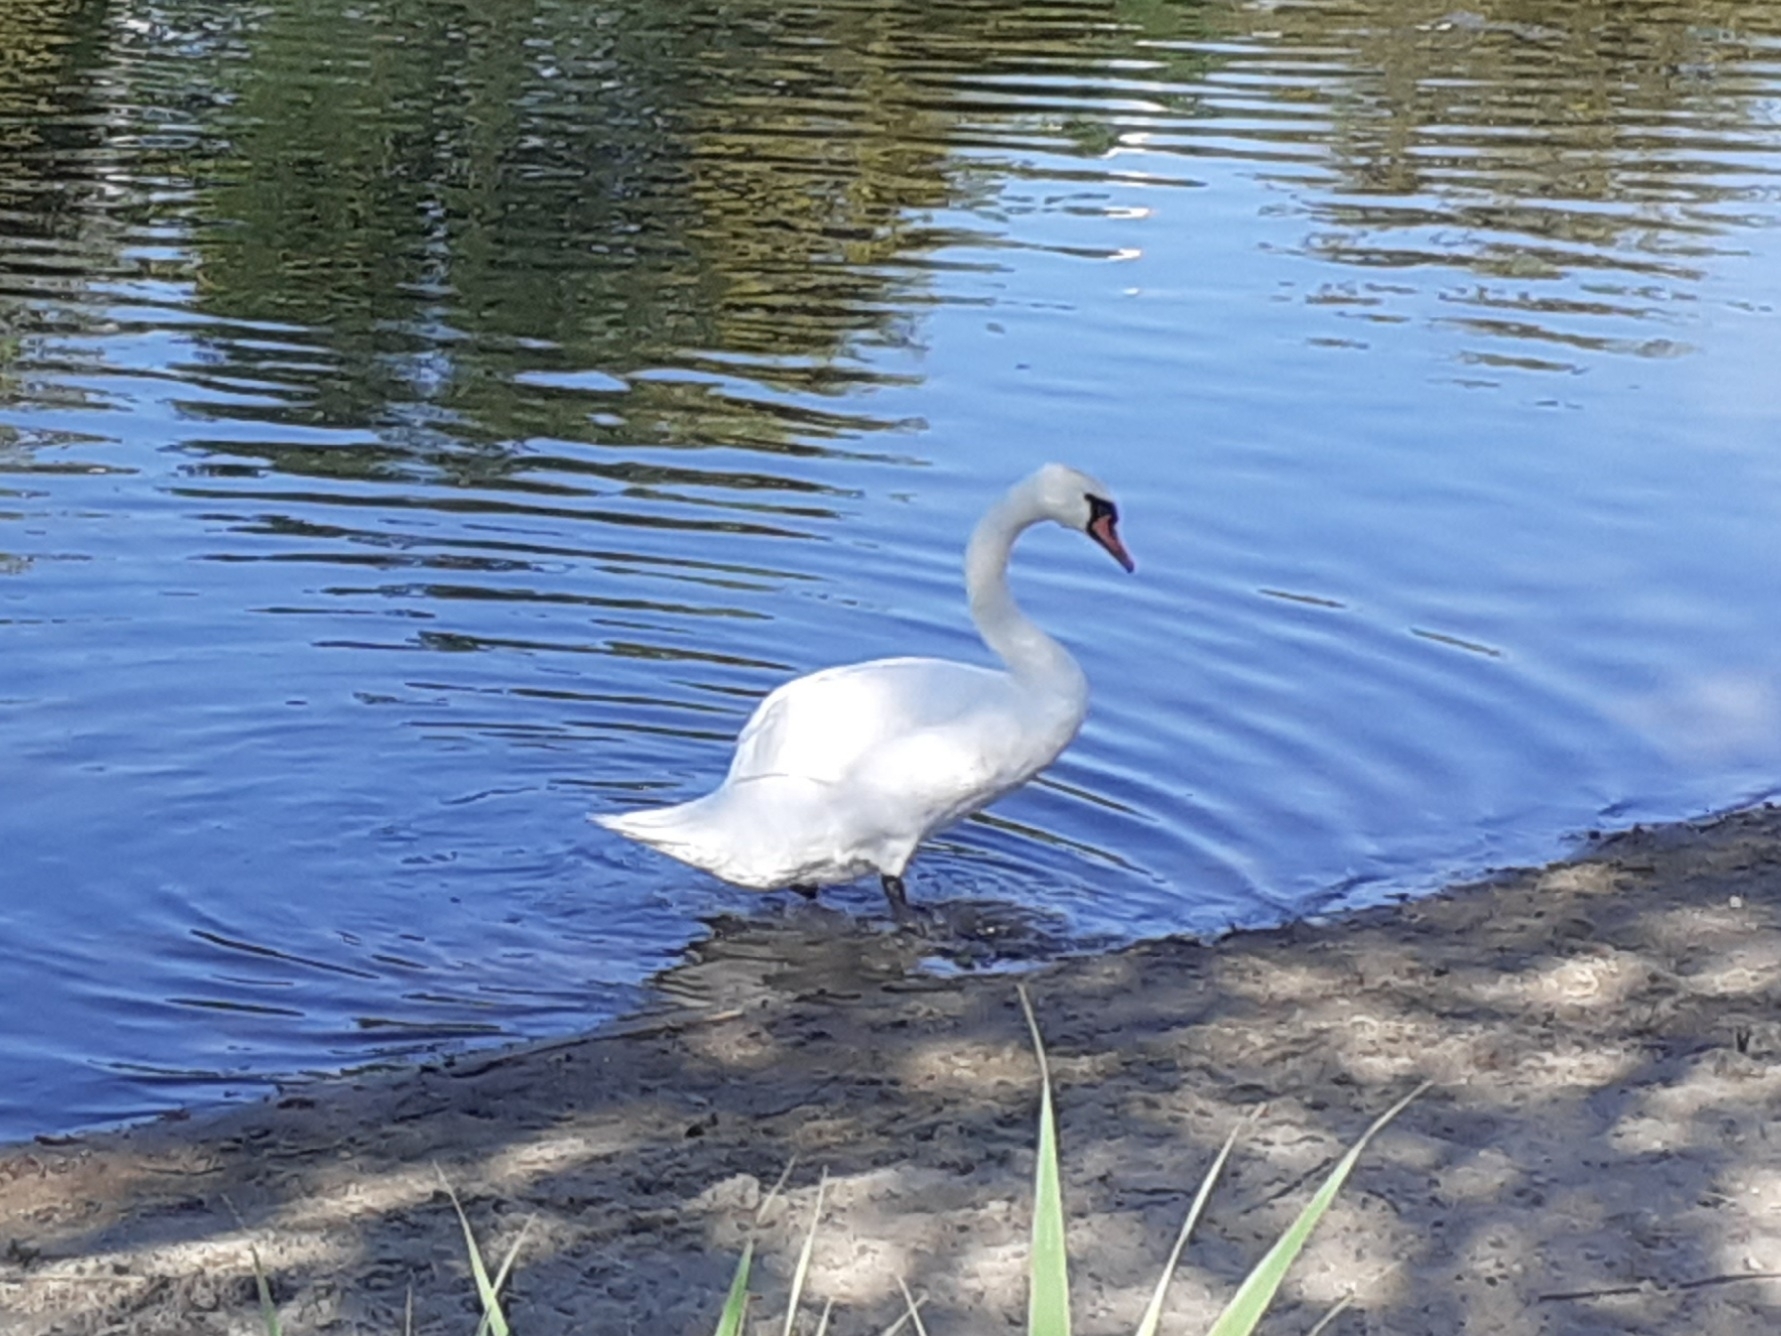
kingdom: Animalia
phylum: Chordata
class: Aves
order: Anseriformes
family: Anatidae
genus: Cygnus
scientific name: Cygnus olor
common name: Mute swan
